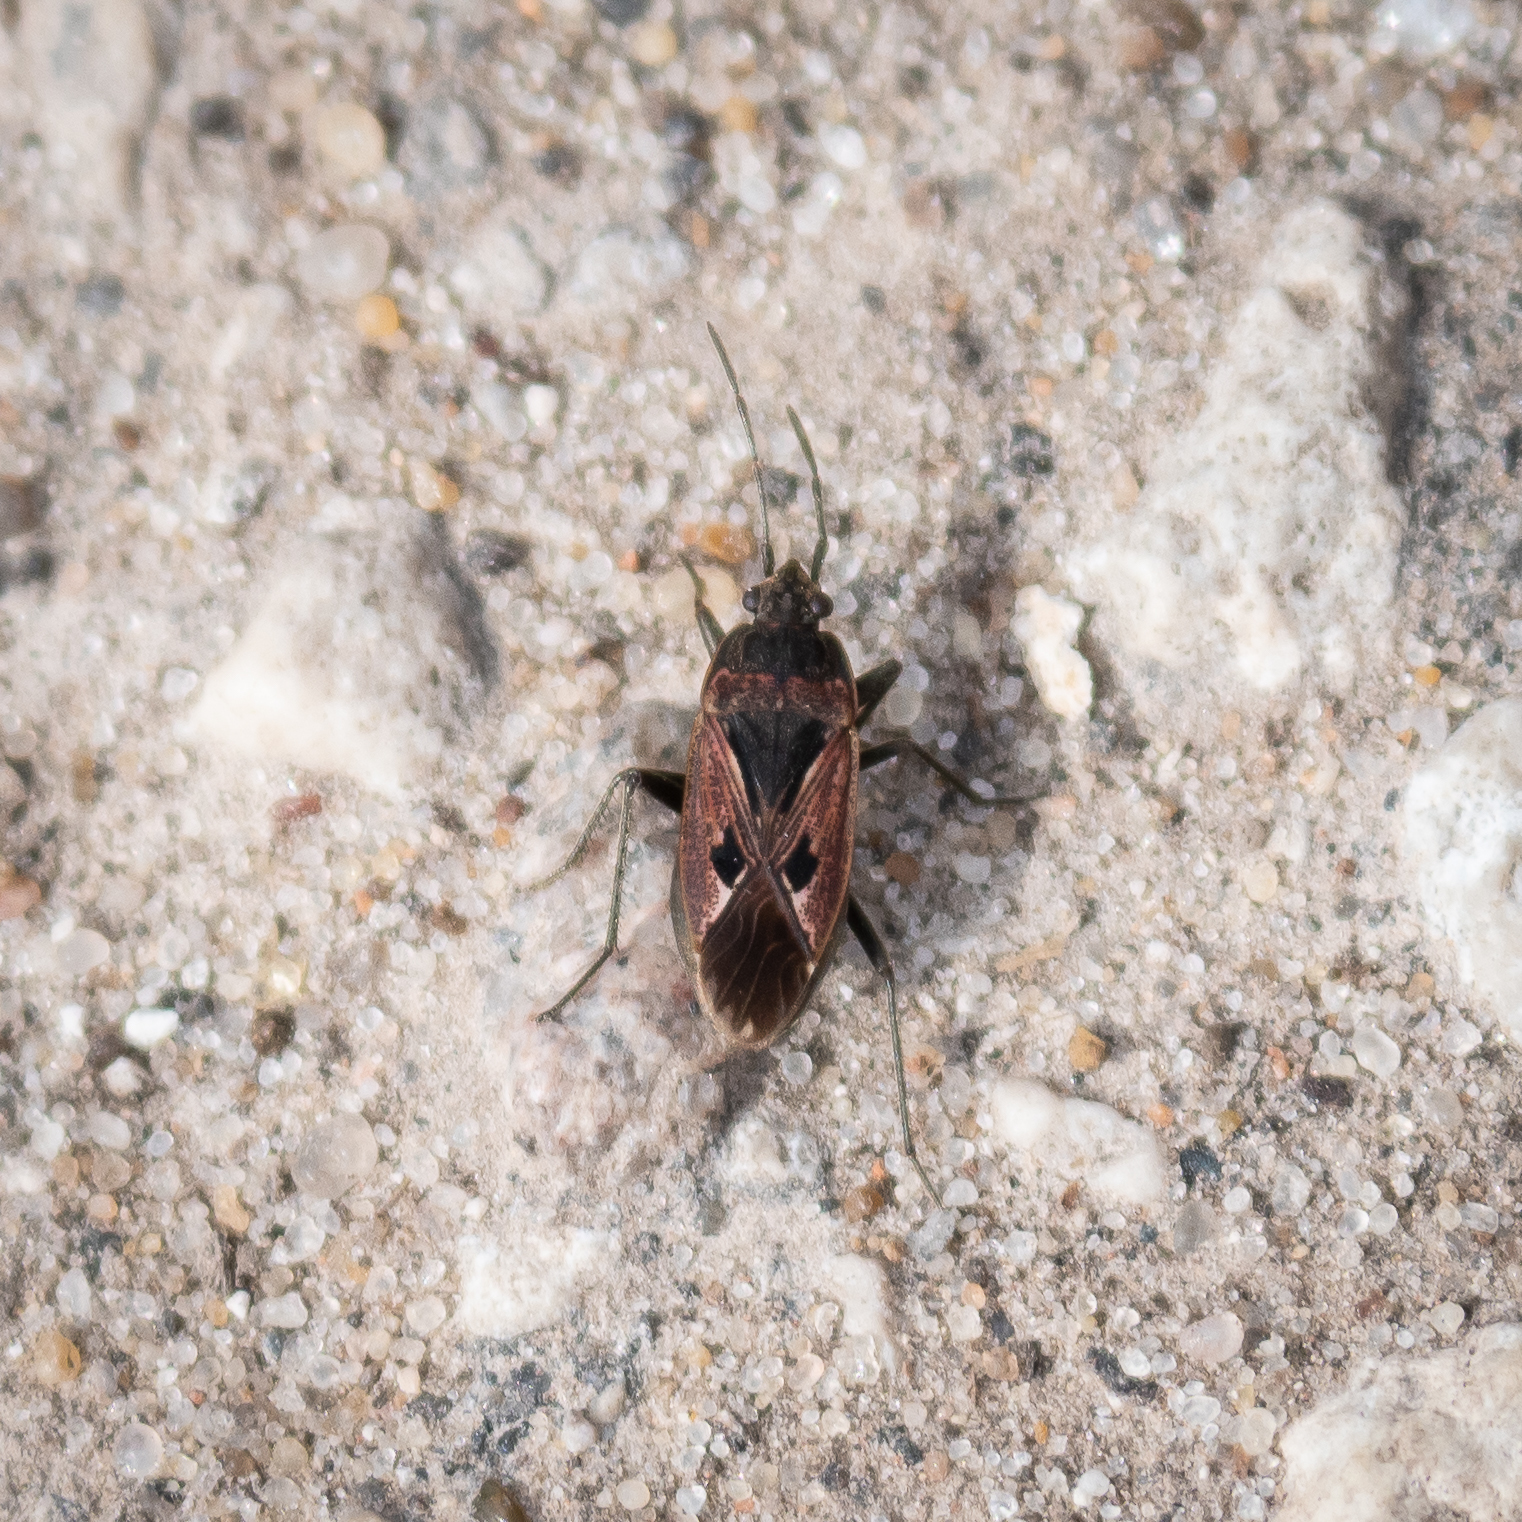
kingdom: Animalia
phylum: Arthropoda
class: Insecta
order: Hemiptera
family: Rhyparochromidae
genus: Rhyparochromus
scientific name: Rhyparochromus pini
